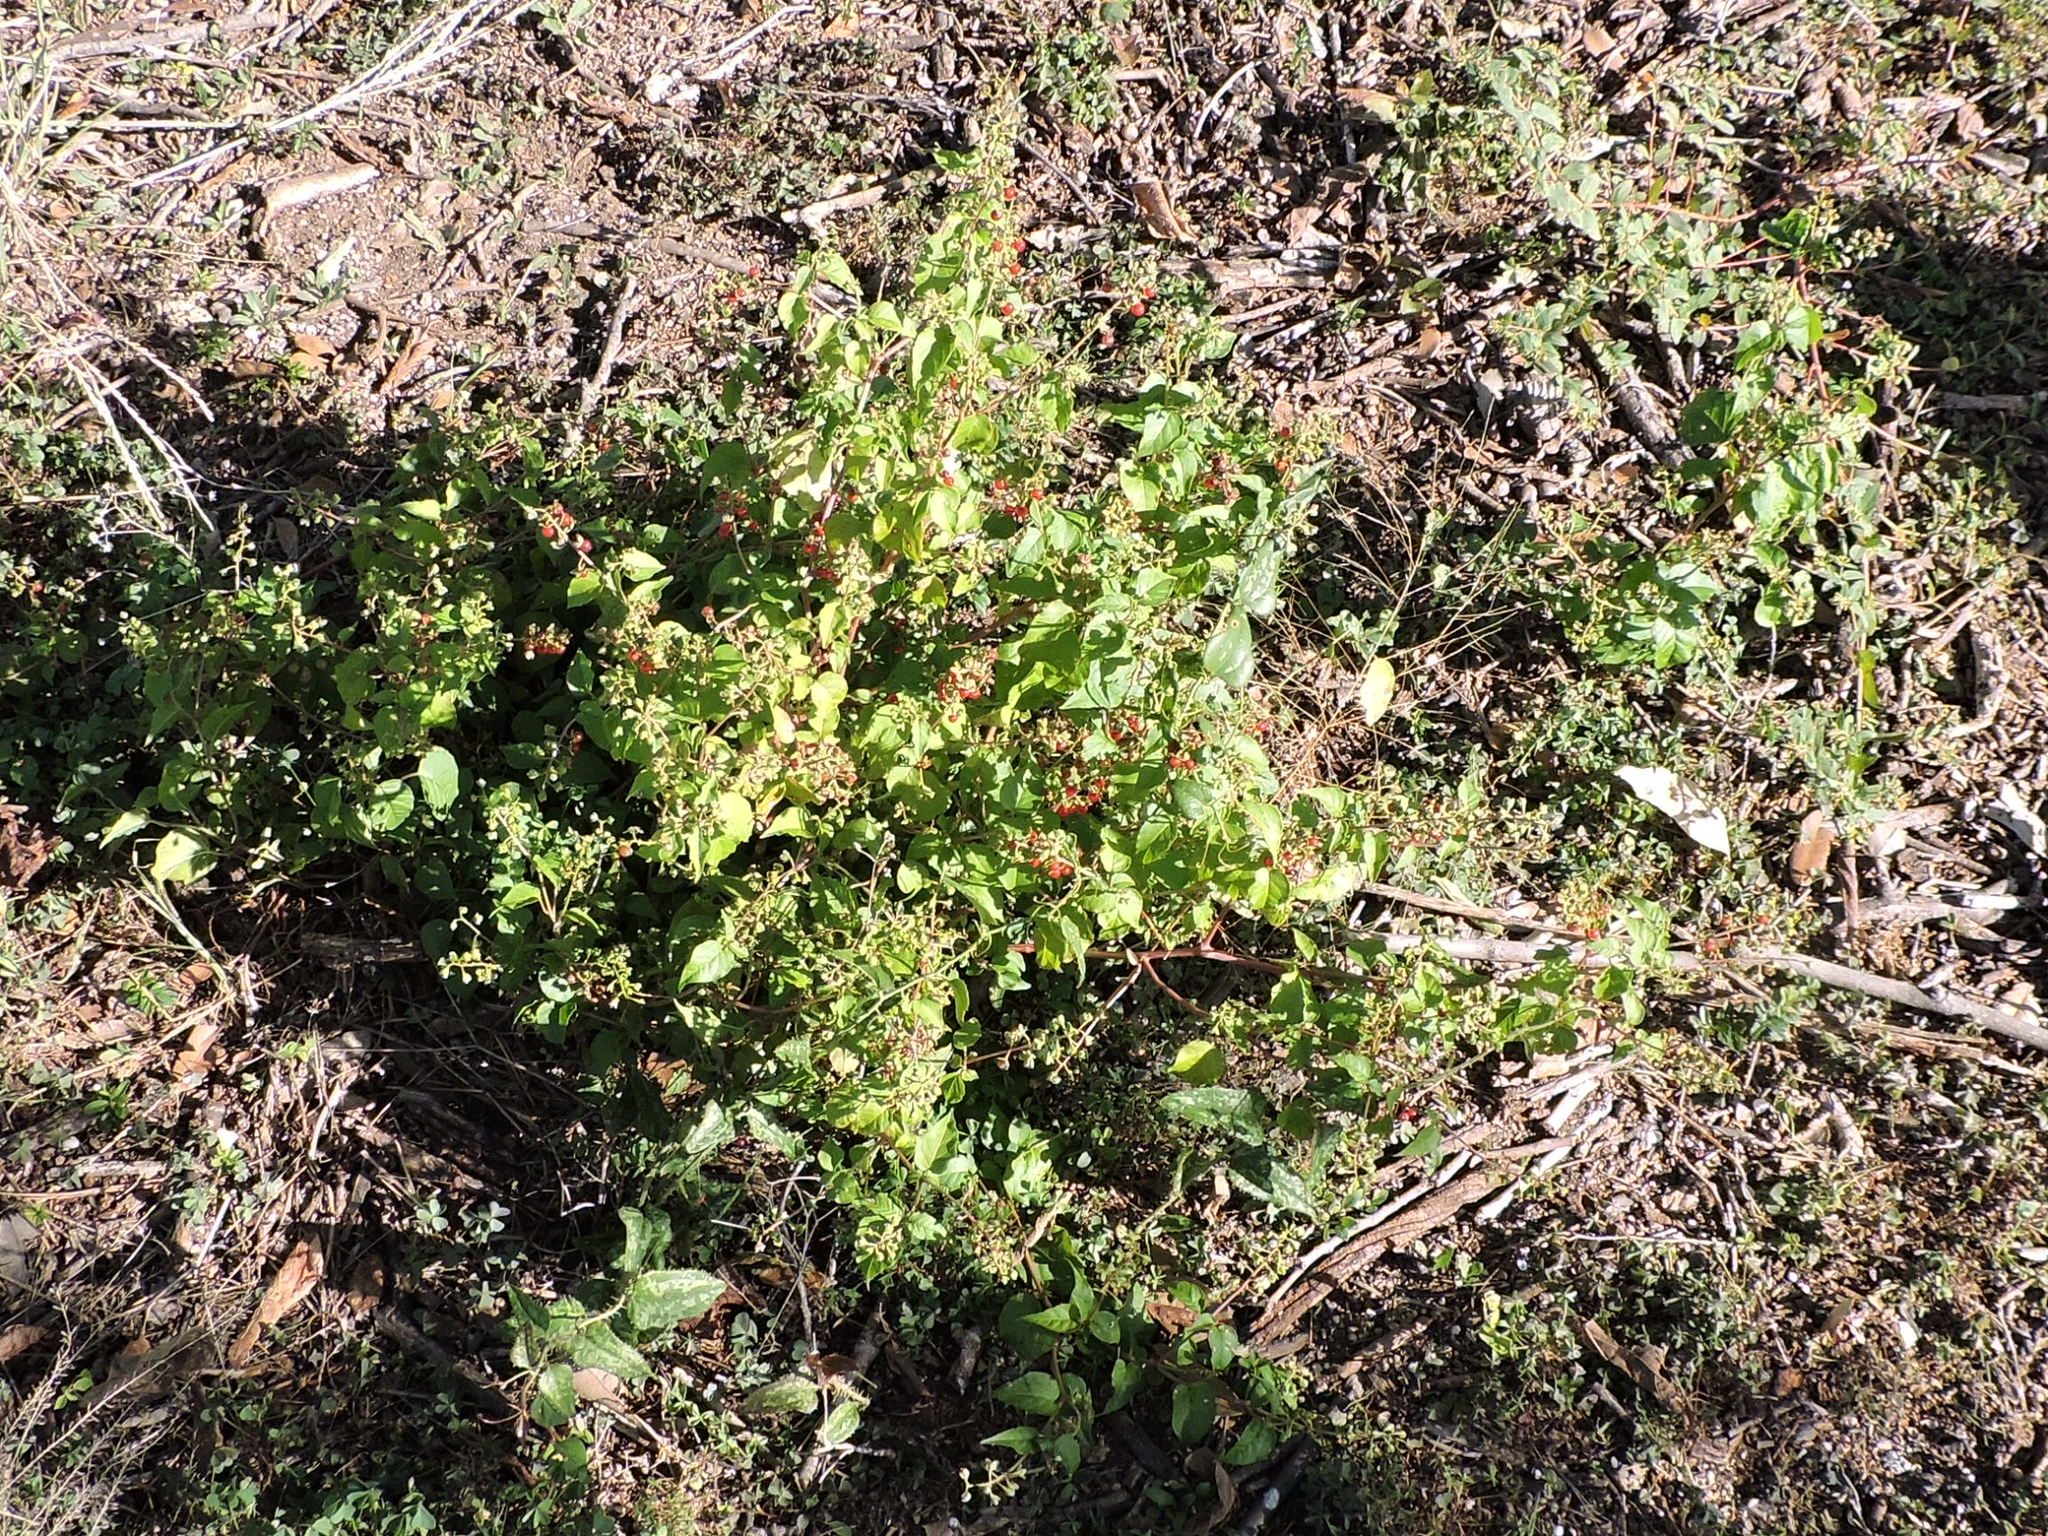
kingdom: Plantae
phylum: Tracheophyta
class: Magnoliopsida
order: Caryophyllales
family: Phytolaccaceae
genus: Rivina
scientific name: Rivina humilis
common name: Rougeplant
